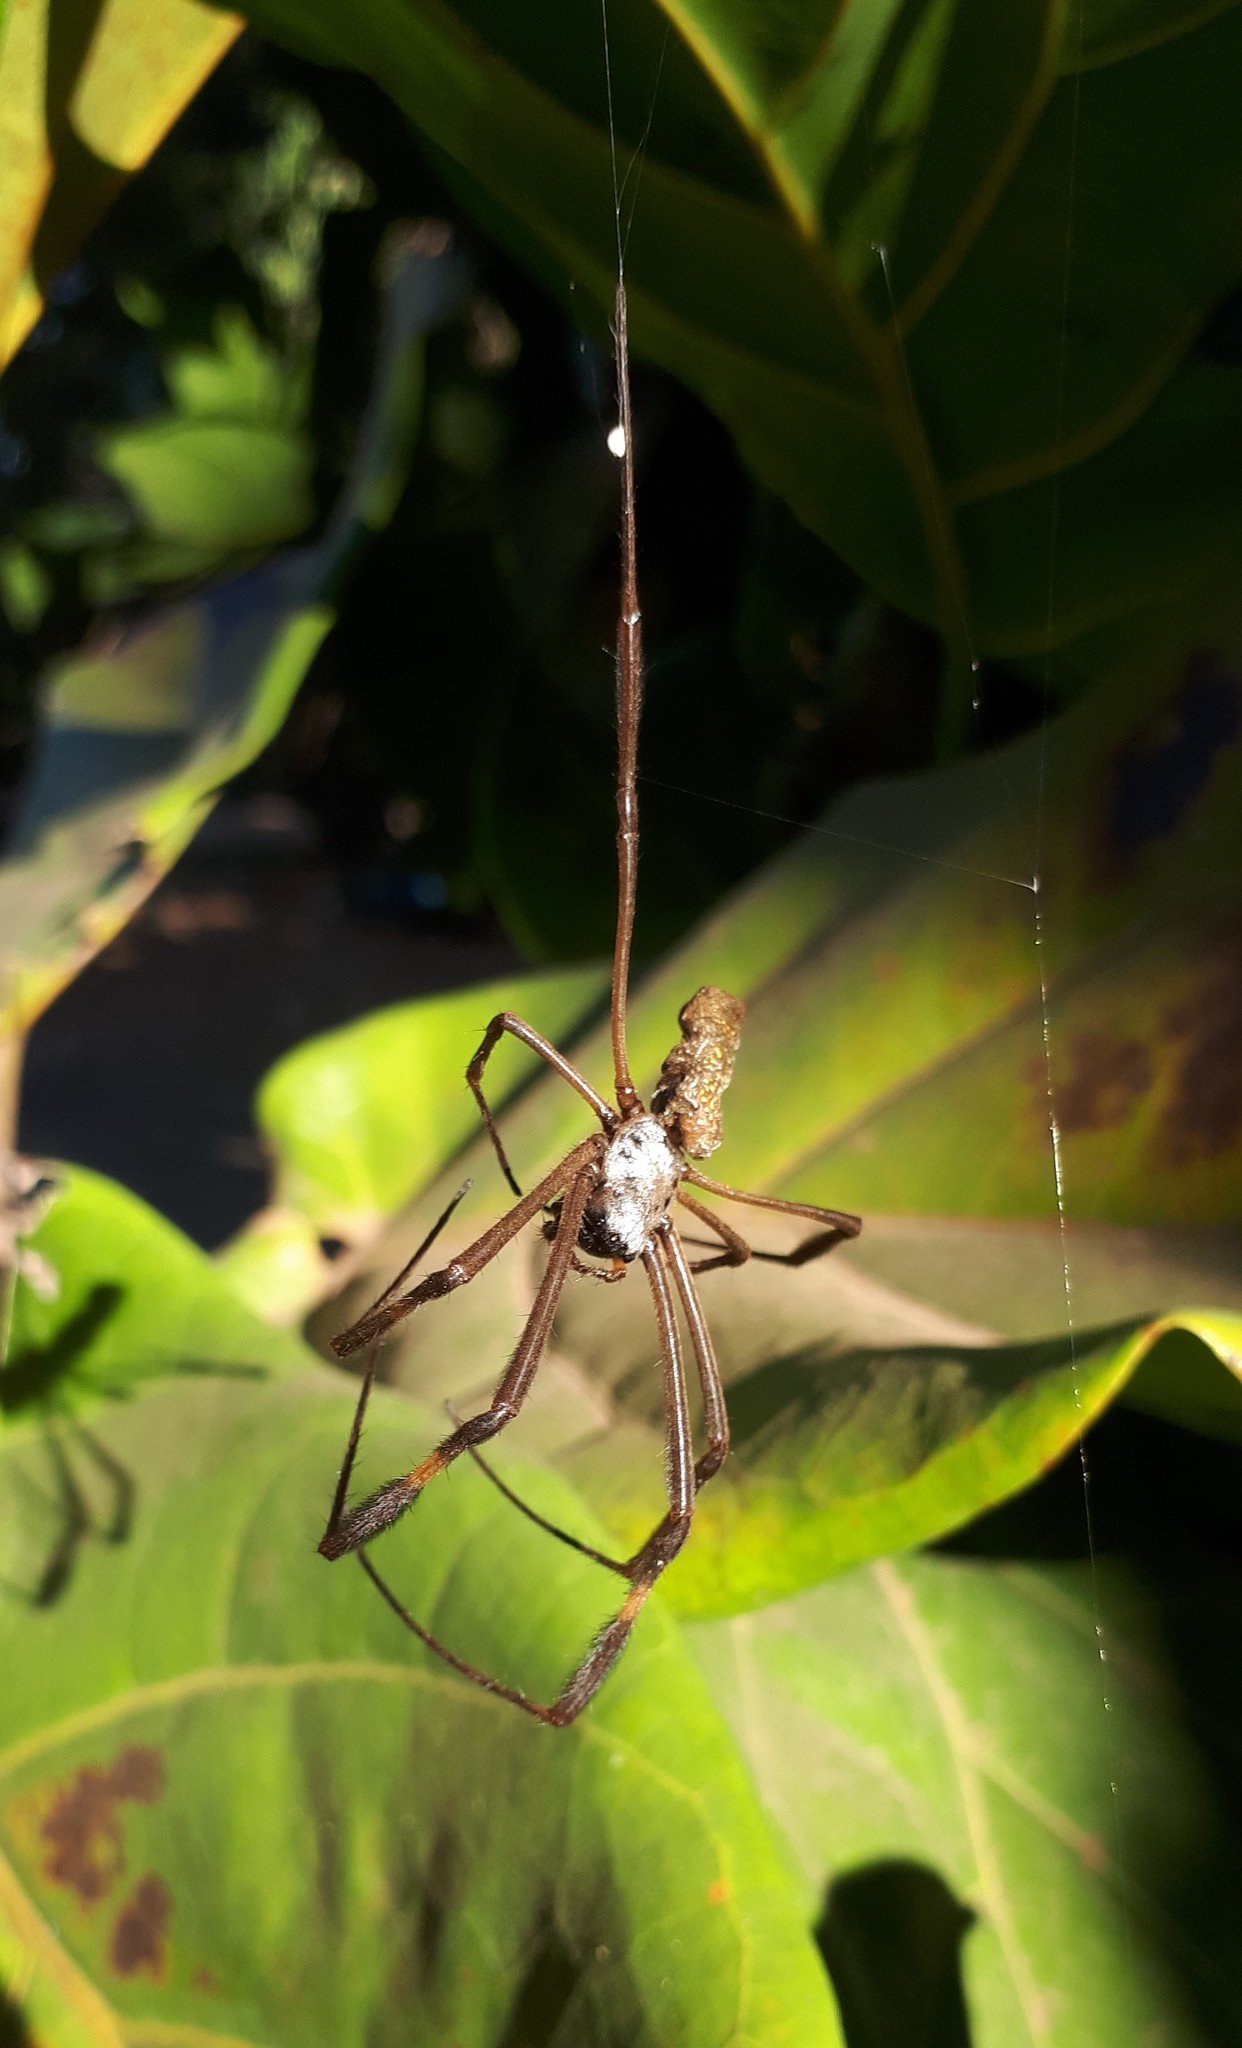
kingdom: Animalia
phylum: Arthropoda
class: Arachnida
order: Araneae
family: Araneidae
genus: Trichonephila
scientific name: Trichonephila clavipes
